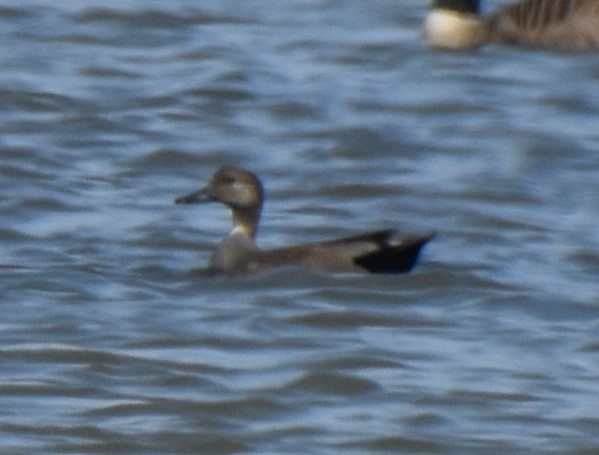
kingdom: Animalia
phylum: Chordata
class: Aves
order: Anseriformes
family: Anatidae
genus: Mareca
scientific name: Mareca strepera
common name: Gadwall
